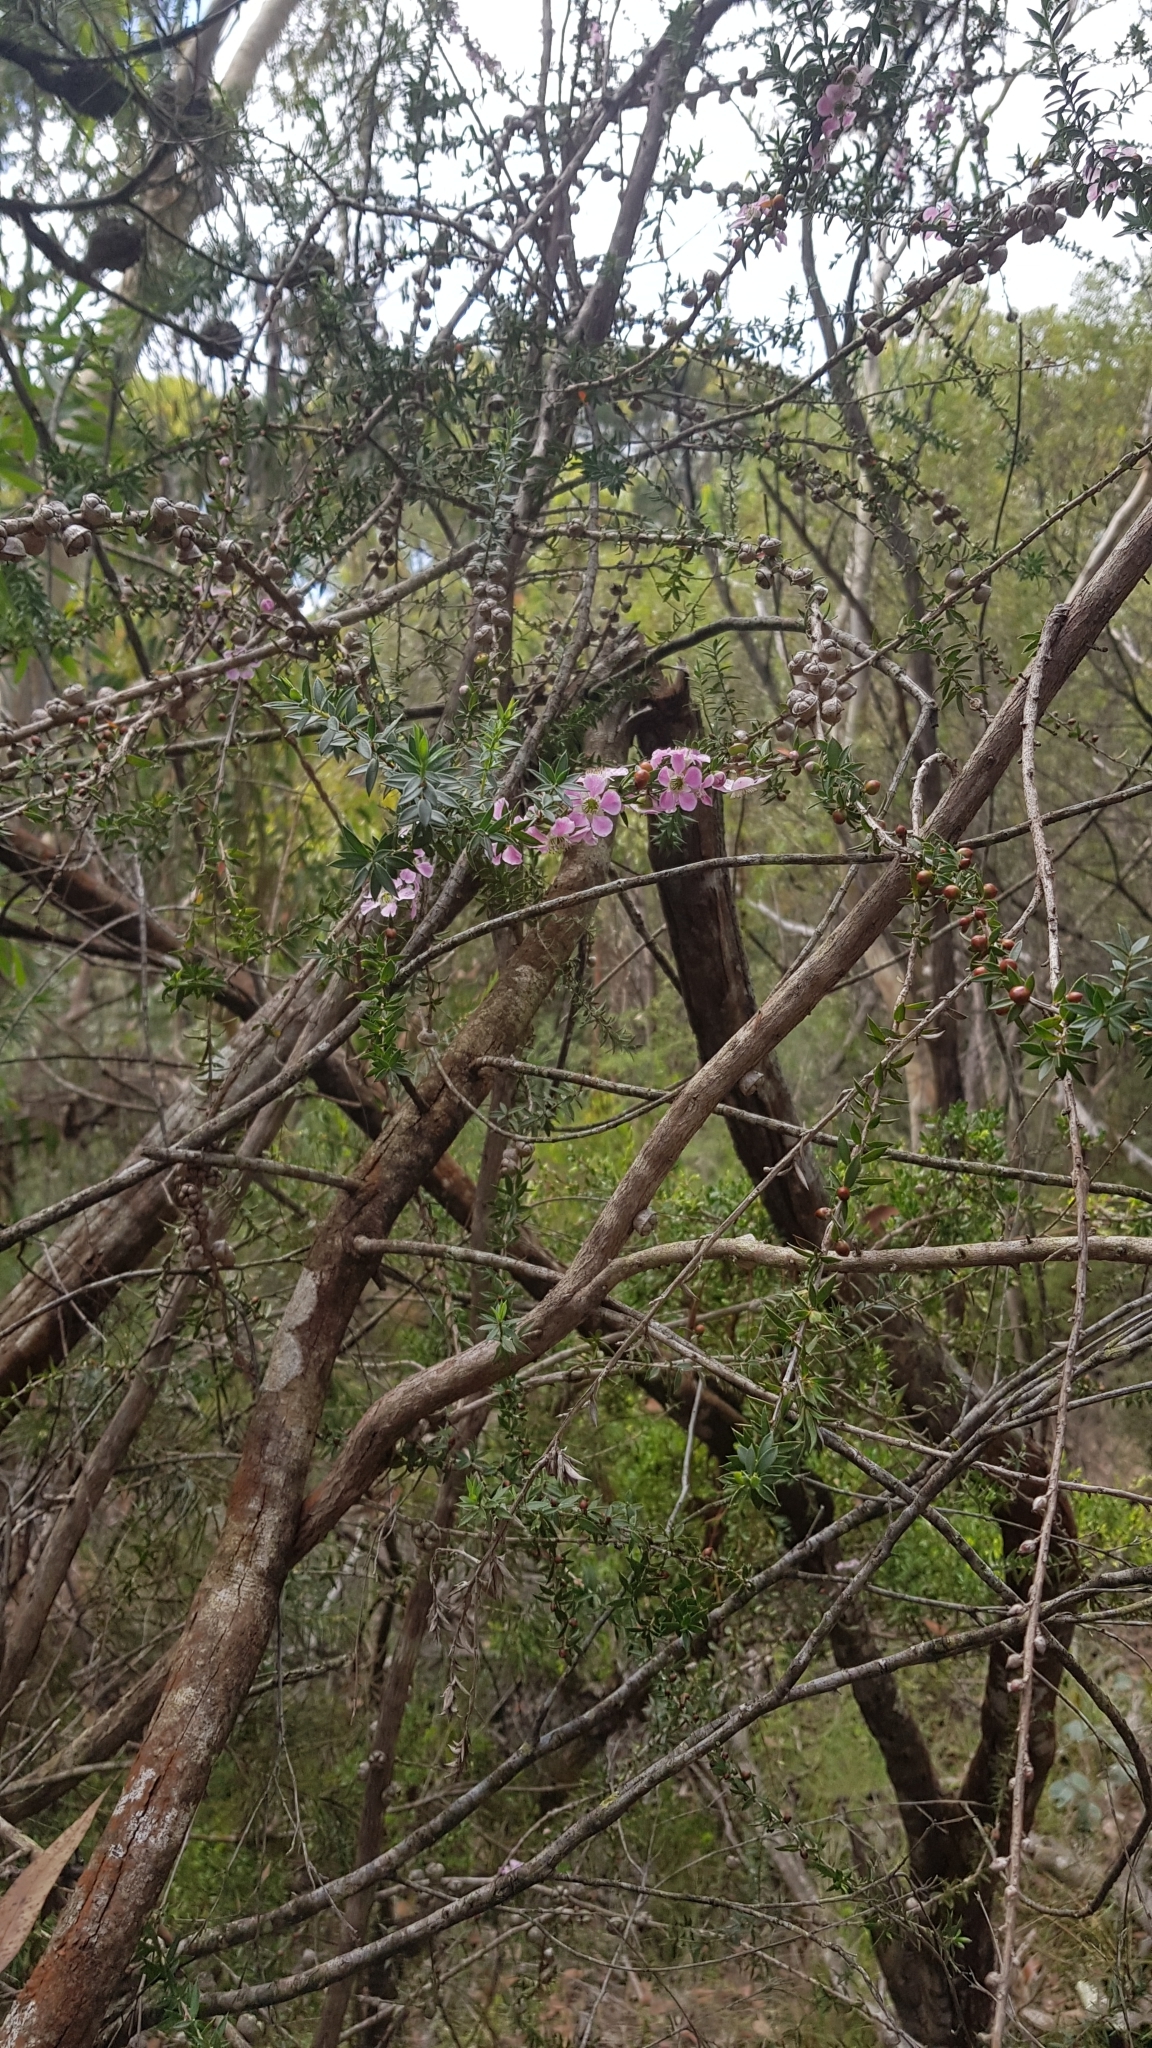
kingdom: Plantae
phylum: Tracheophyta
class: Magnoliopsida
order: Myrtales
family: Myrtaceae
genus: Leptospermum
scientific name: Leptospermum squarrosum
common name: Peach-blossom teatree
